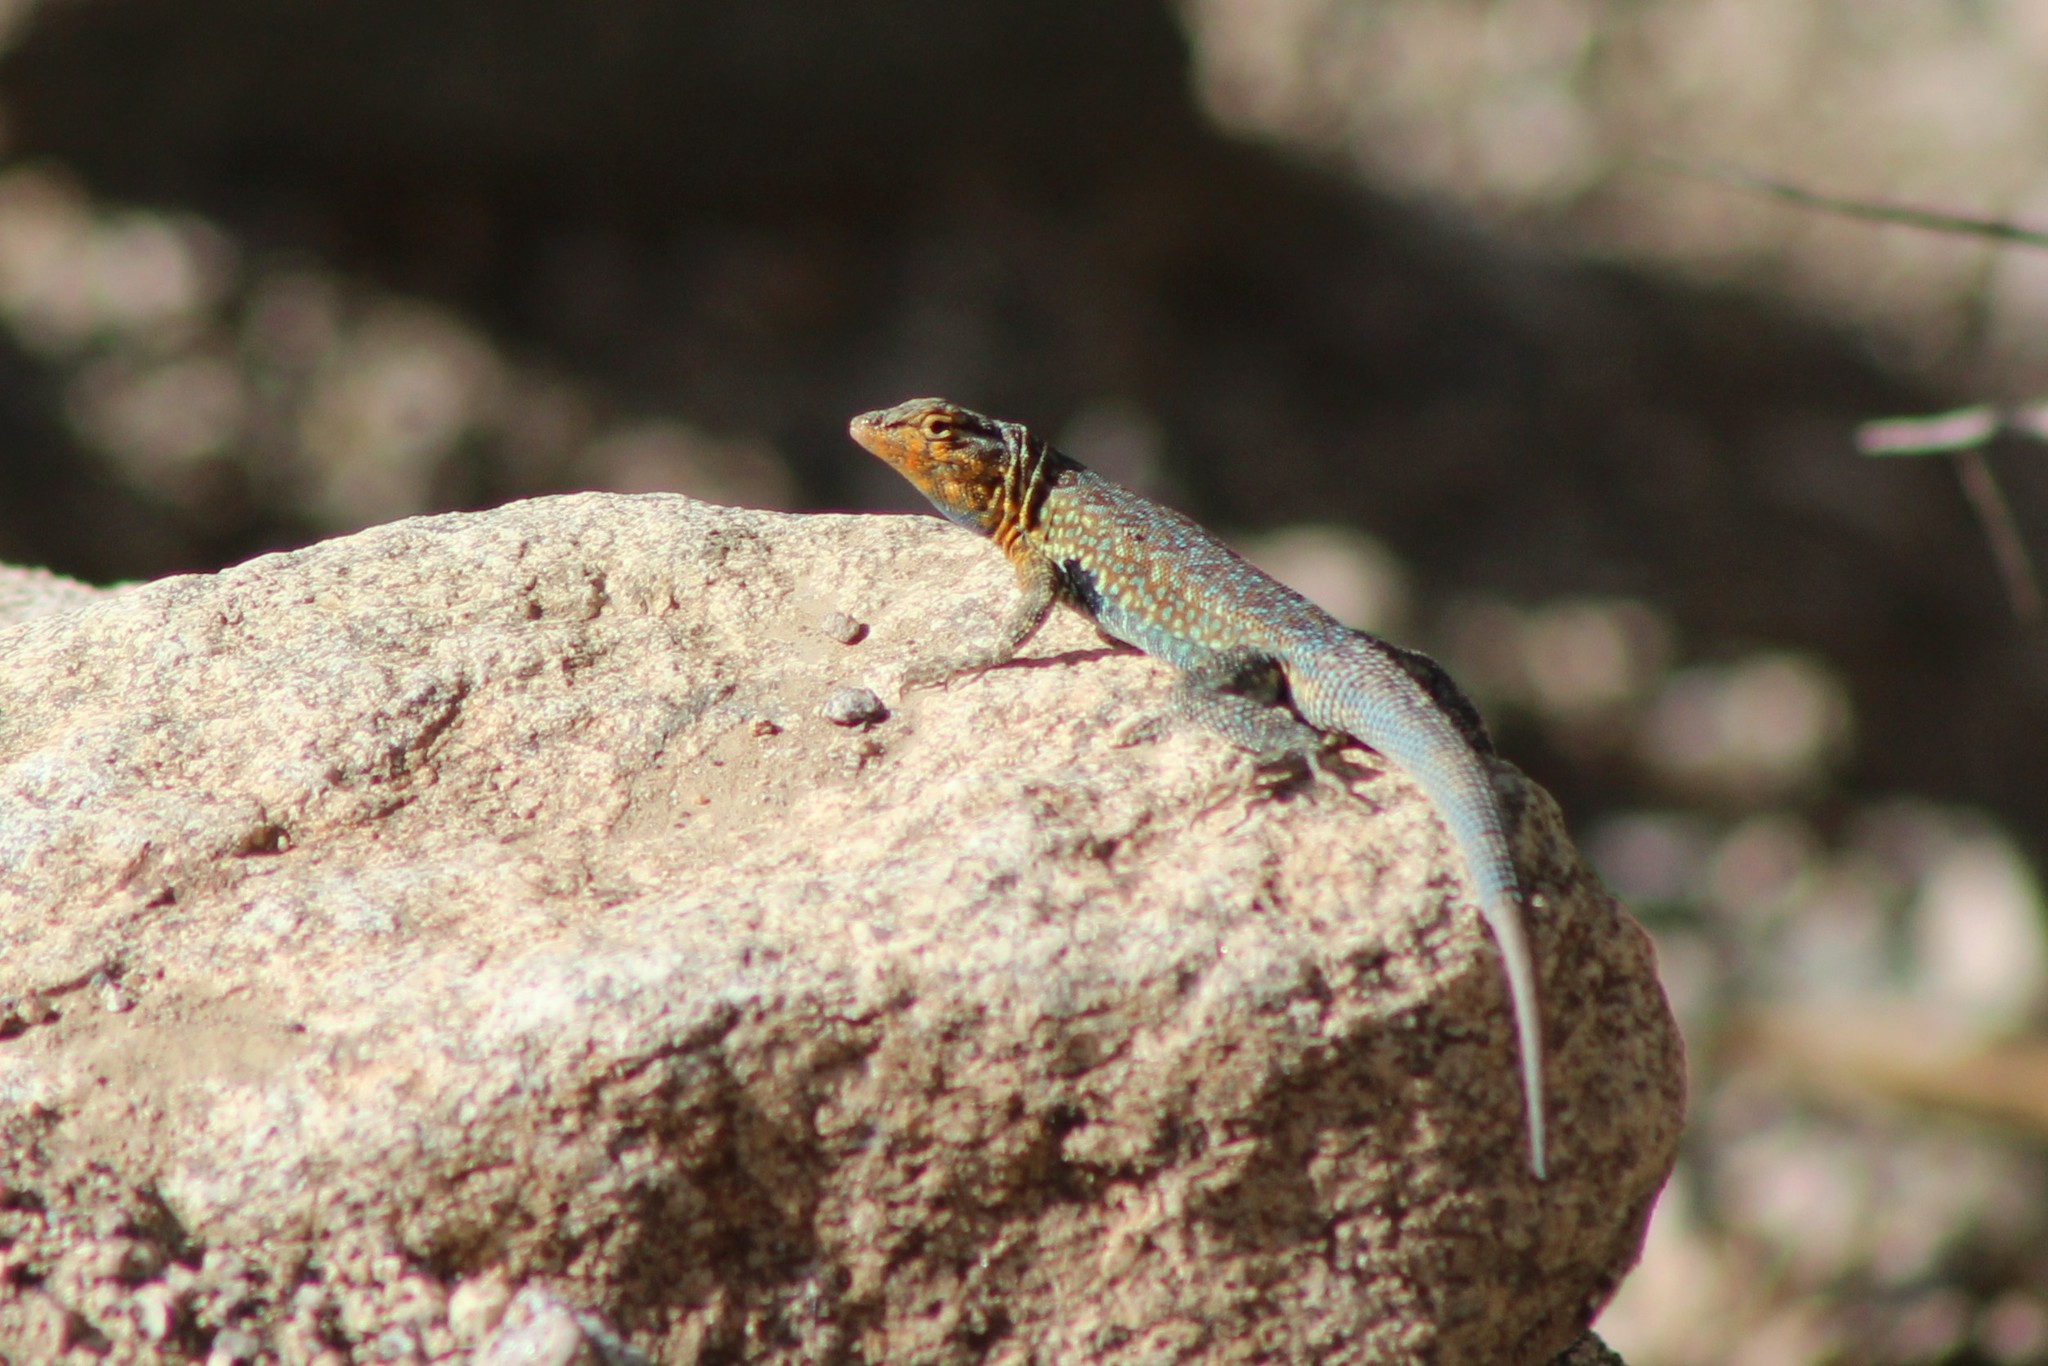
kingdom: Animalia
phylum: Chordata
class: Squamata
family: Phrynosomatidae
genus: Uta
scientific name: Uta stansburiana
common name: Side-blotched lizard
